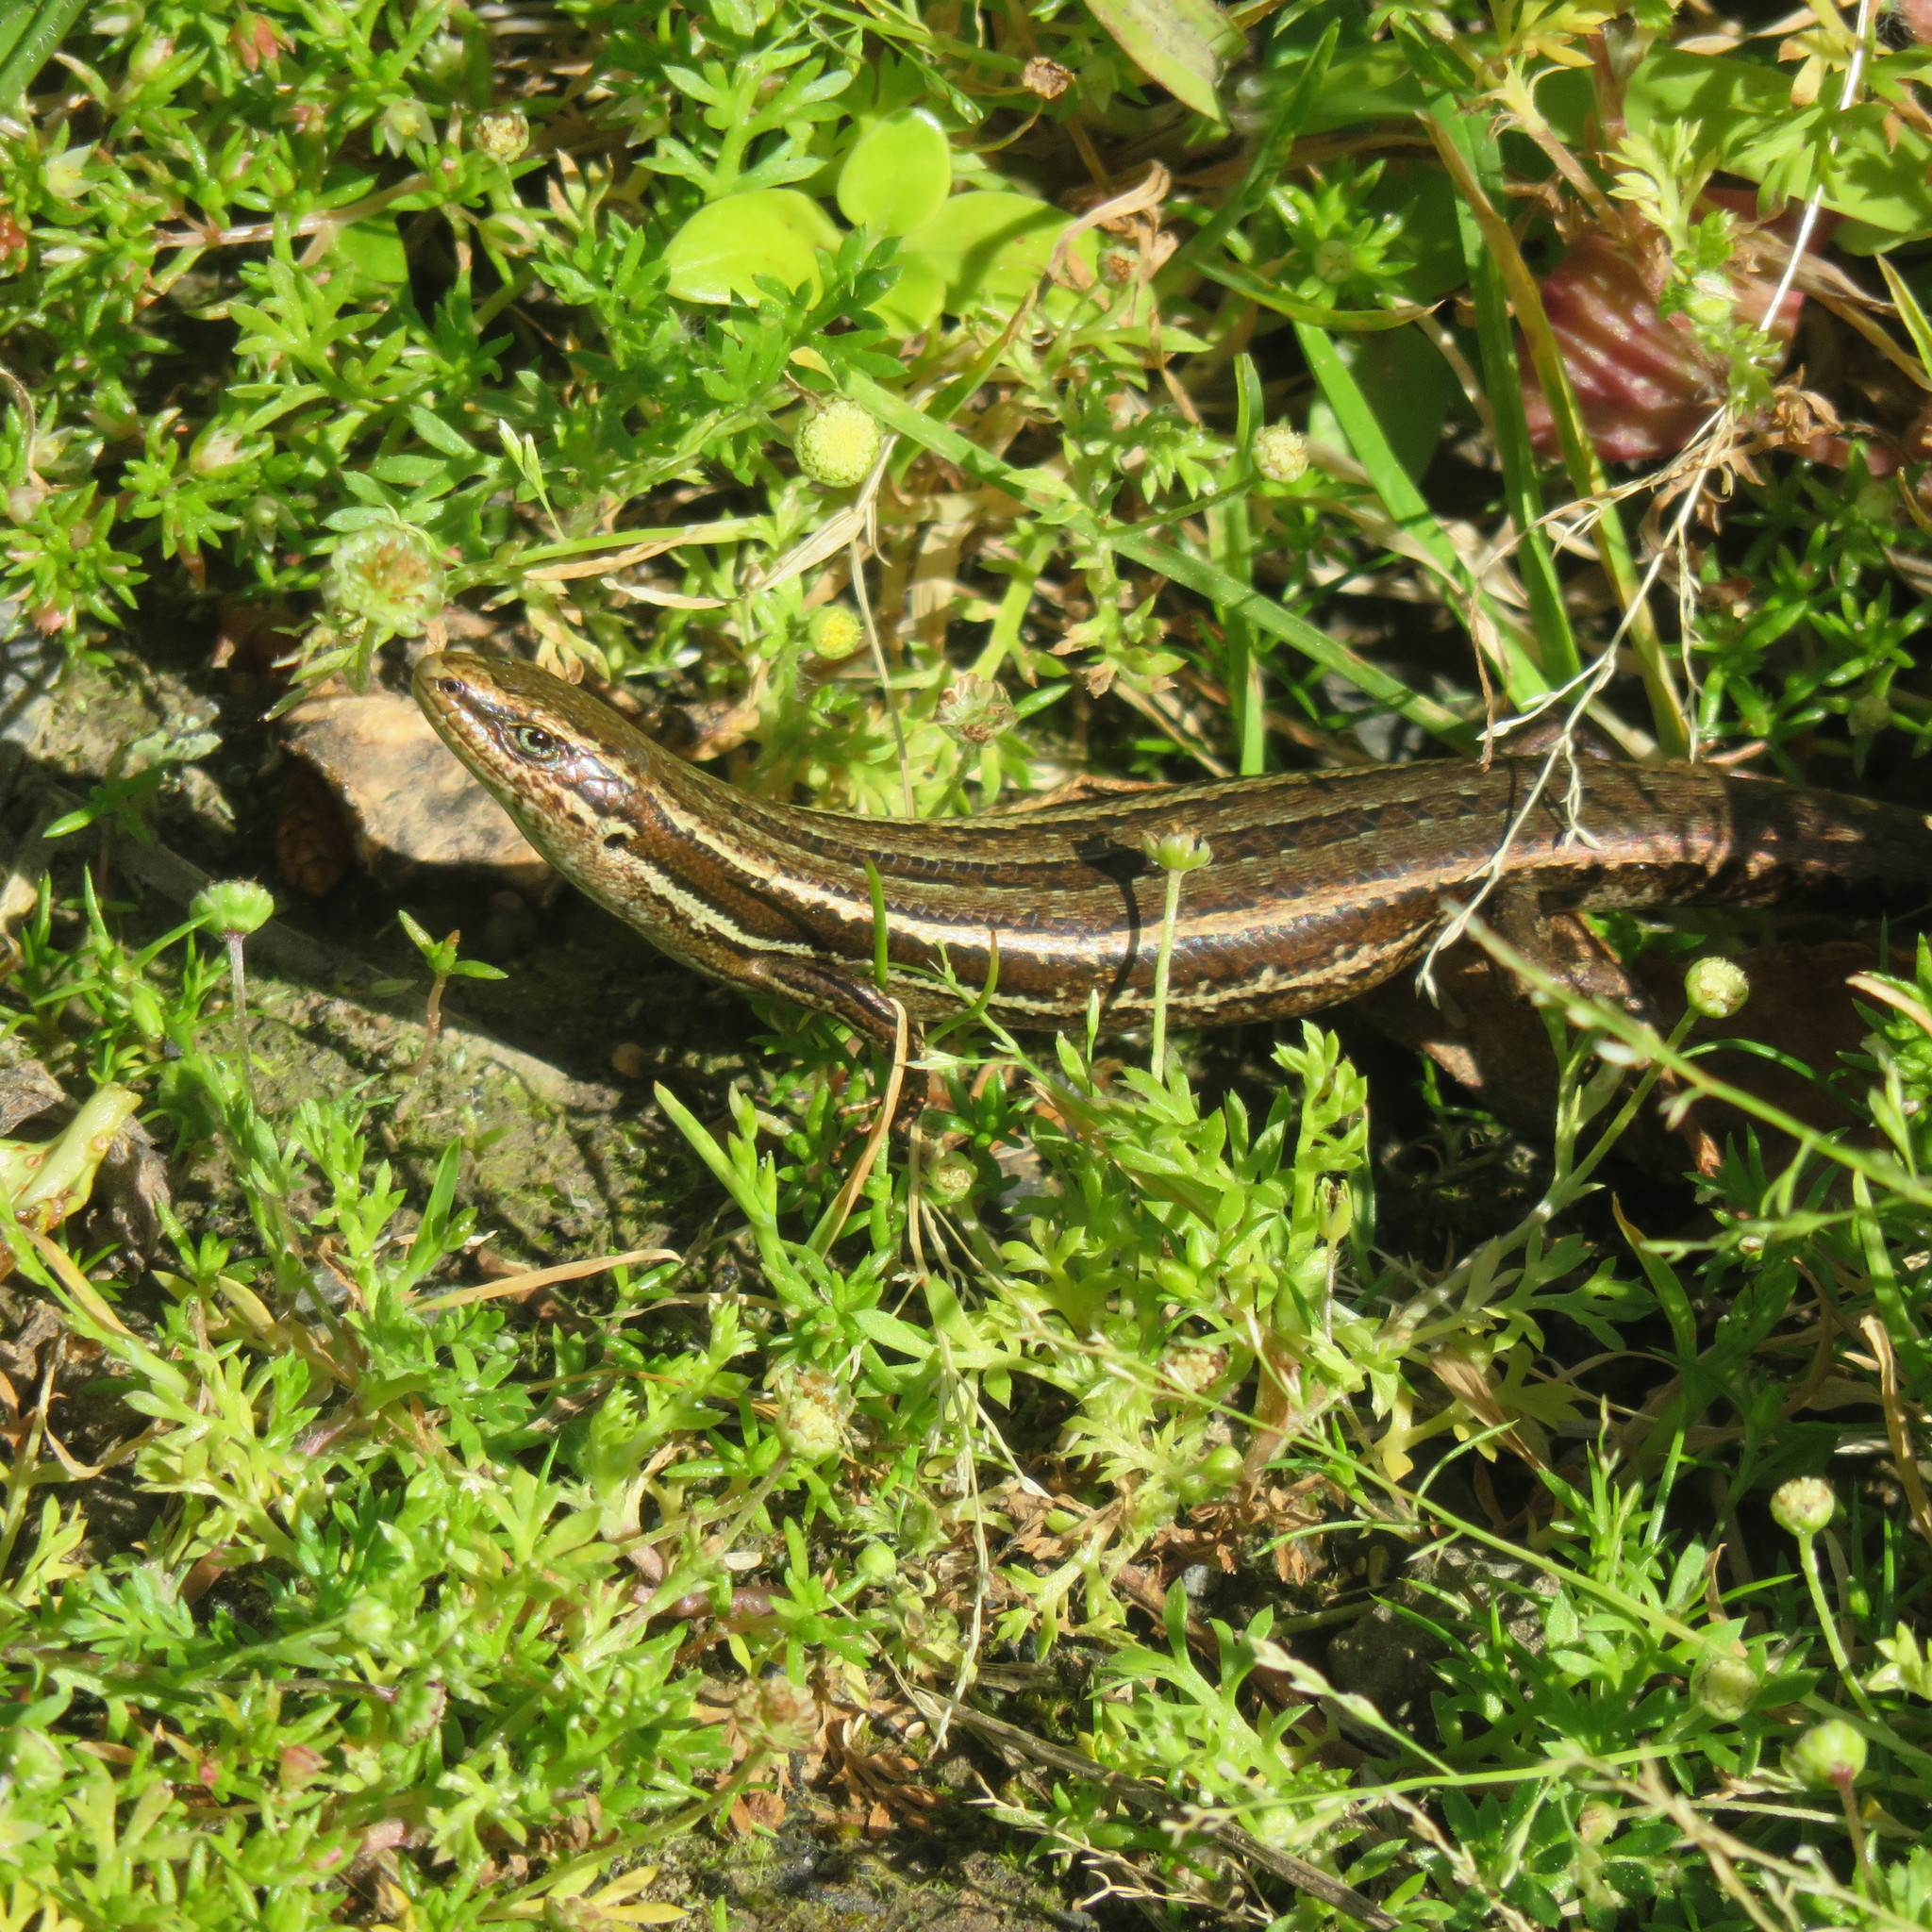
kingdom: Animalia
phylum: Chordata
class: Squamata
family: Scincidae
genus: Oligosoma
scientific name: Oligosoma polychroma
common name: Common new zealand skink
